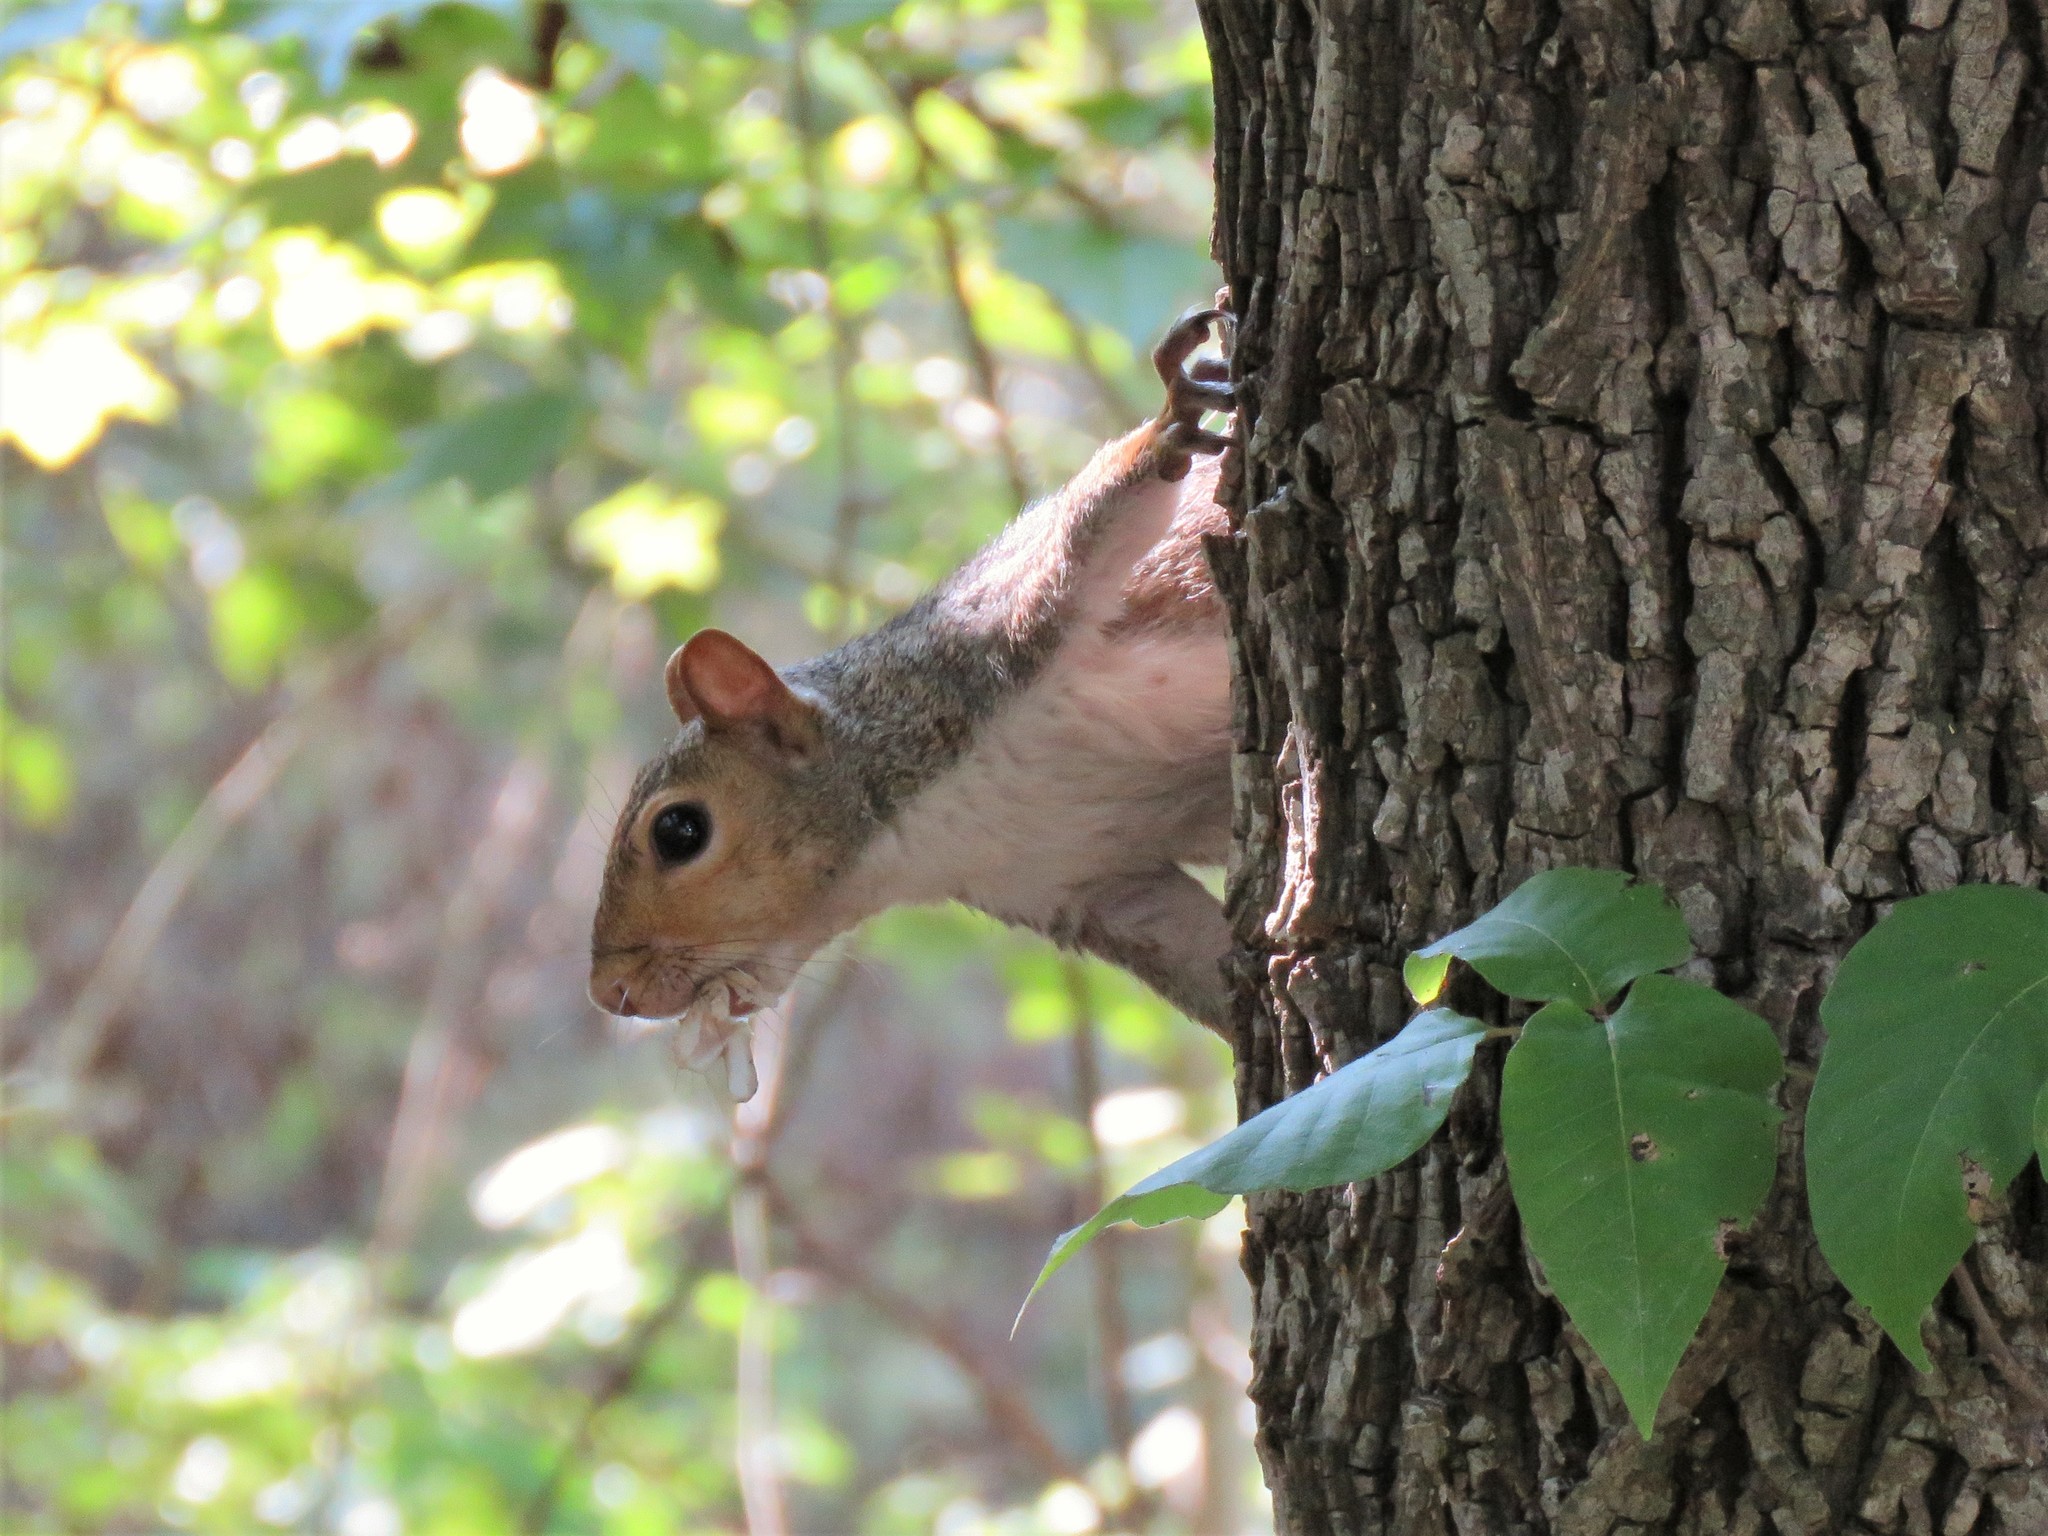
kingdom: Animalia
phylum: Chordata
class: Mammalia
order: Rodentia
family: Sciuridae
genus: Sciurus
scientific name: Sciurus carolinensis
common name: Eastern gray squirrel
